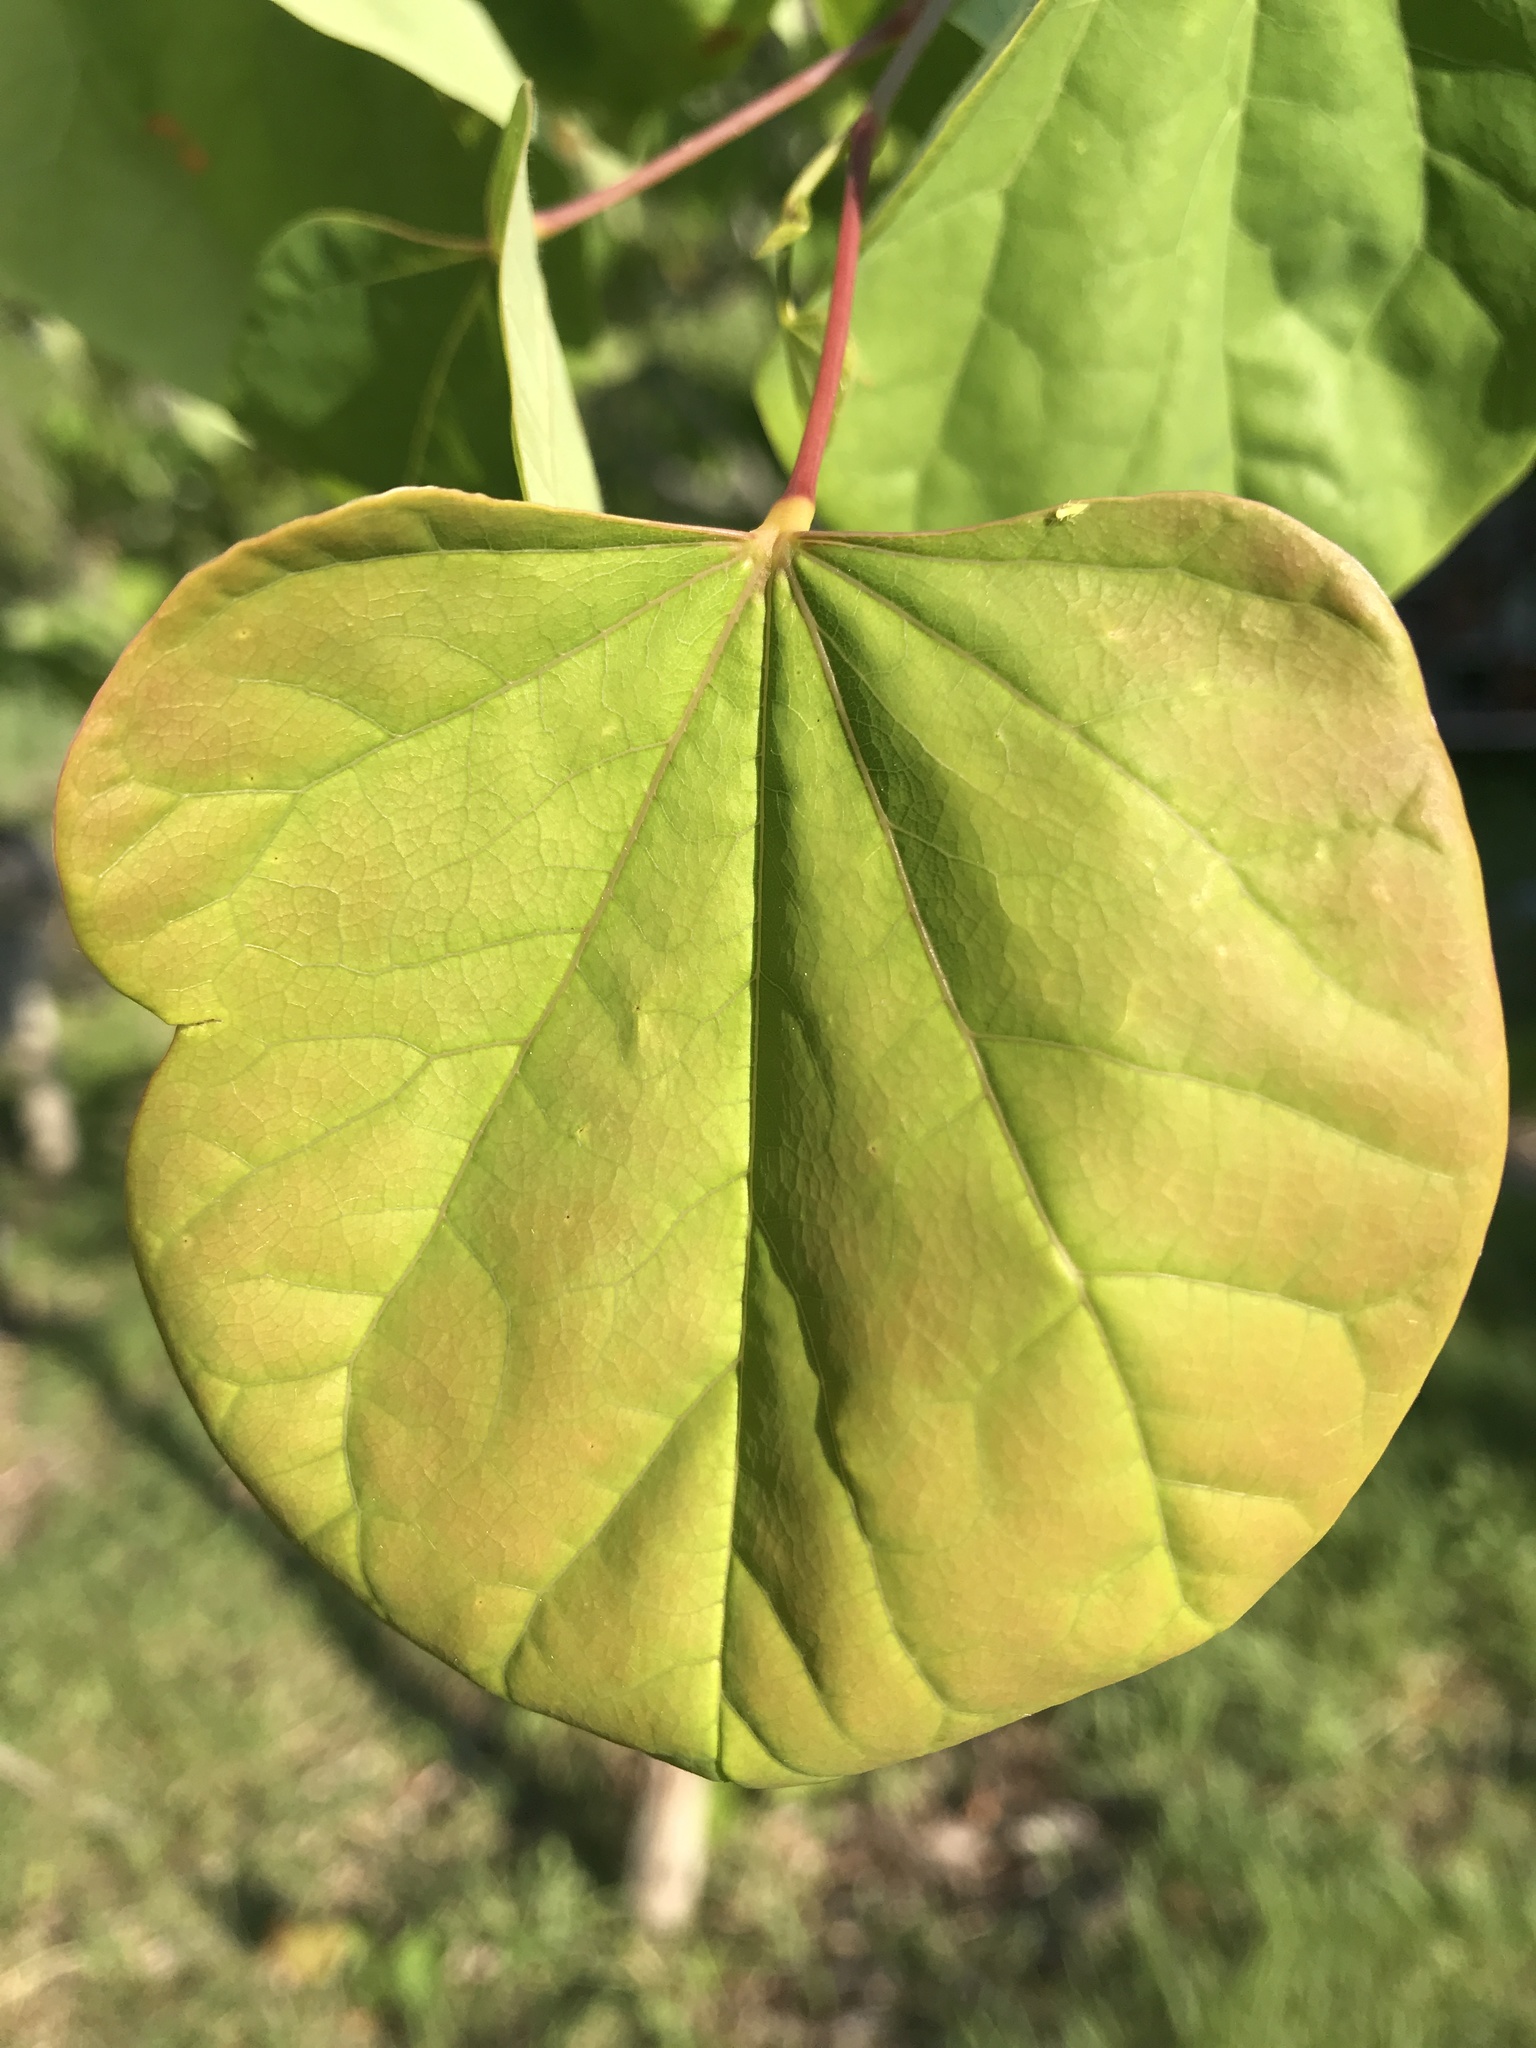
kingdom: Plantae
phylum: Tracheophyta
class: Magnoliopsida
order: Fabales
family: Fabaceae
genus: Cercis
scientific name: Cercis canadensis
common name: Eastern redbud
